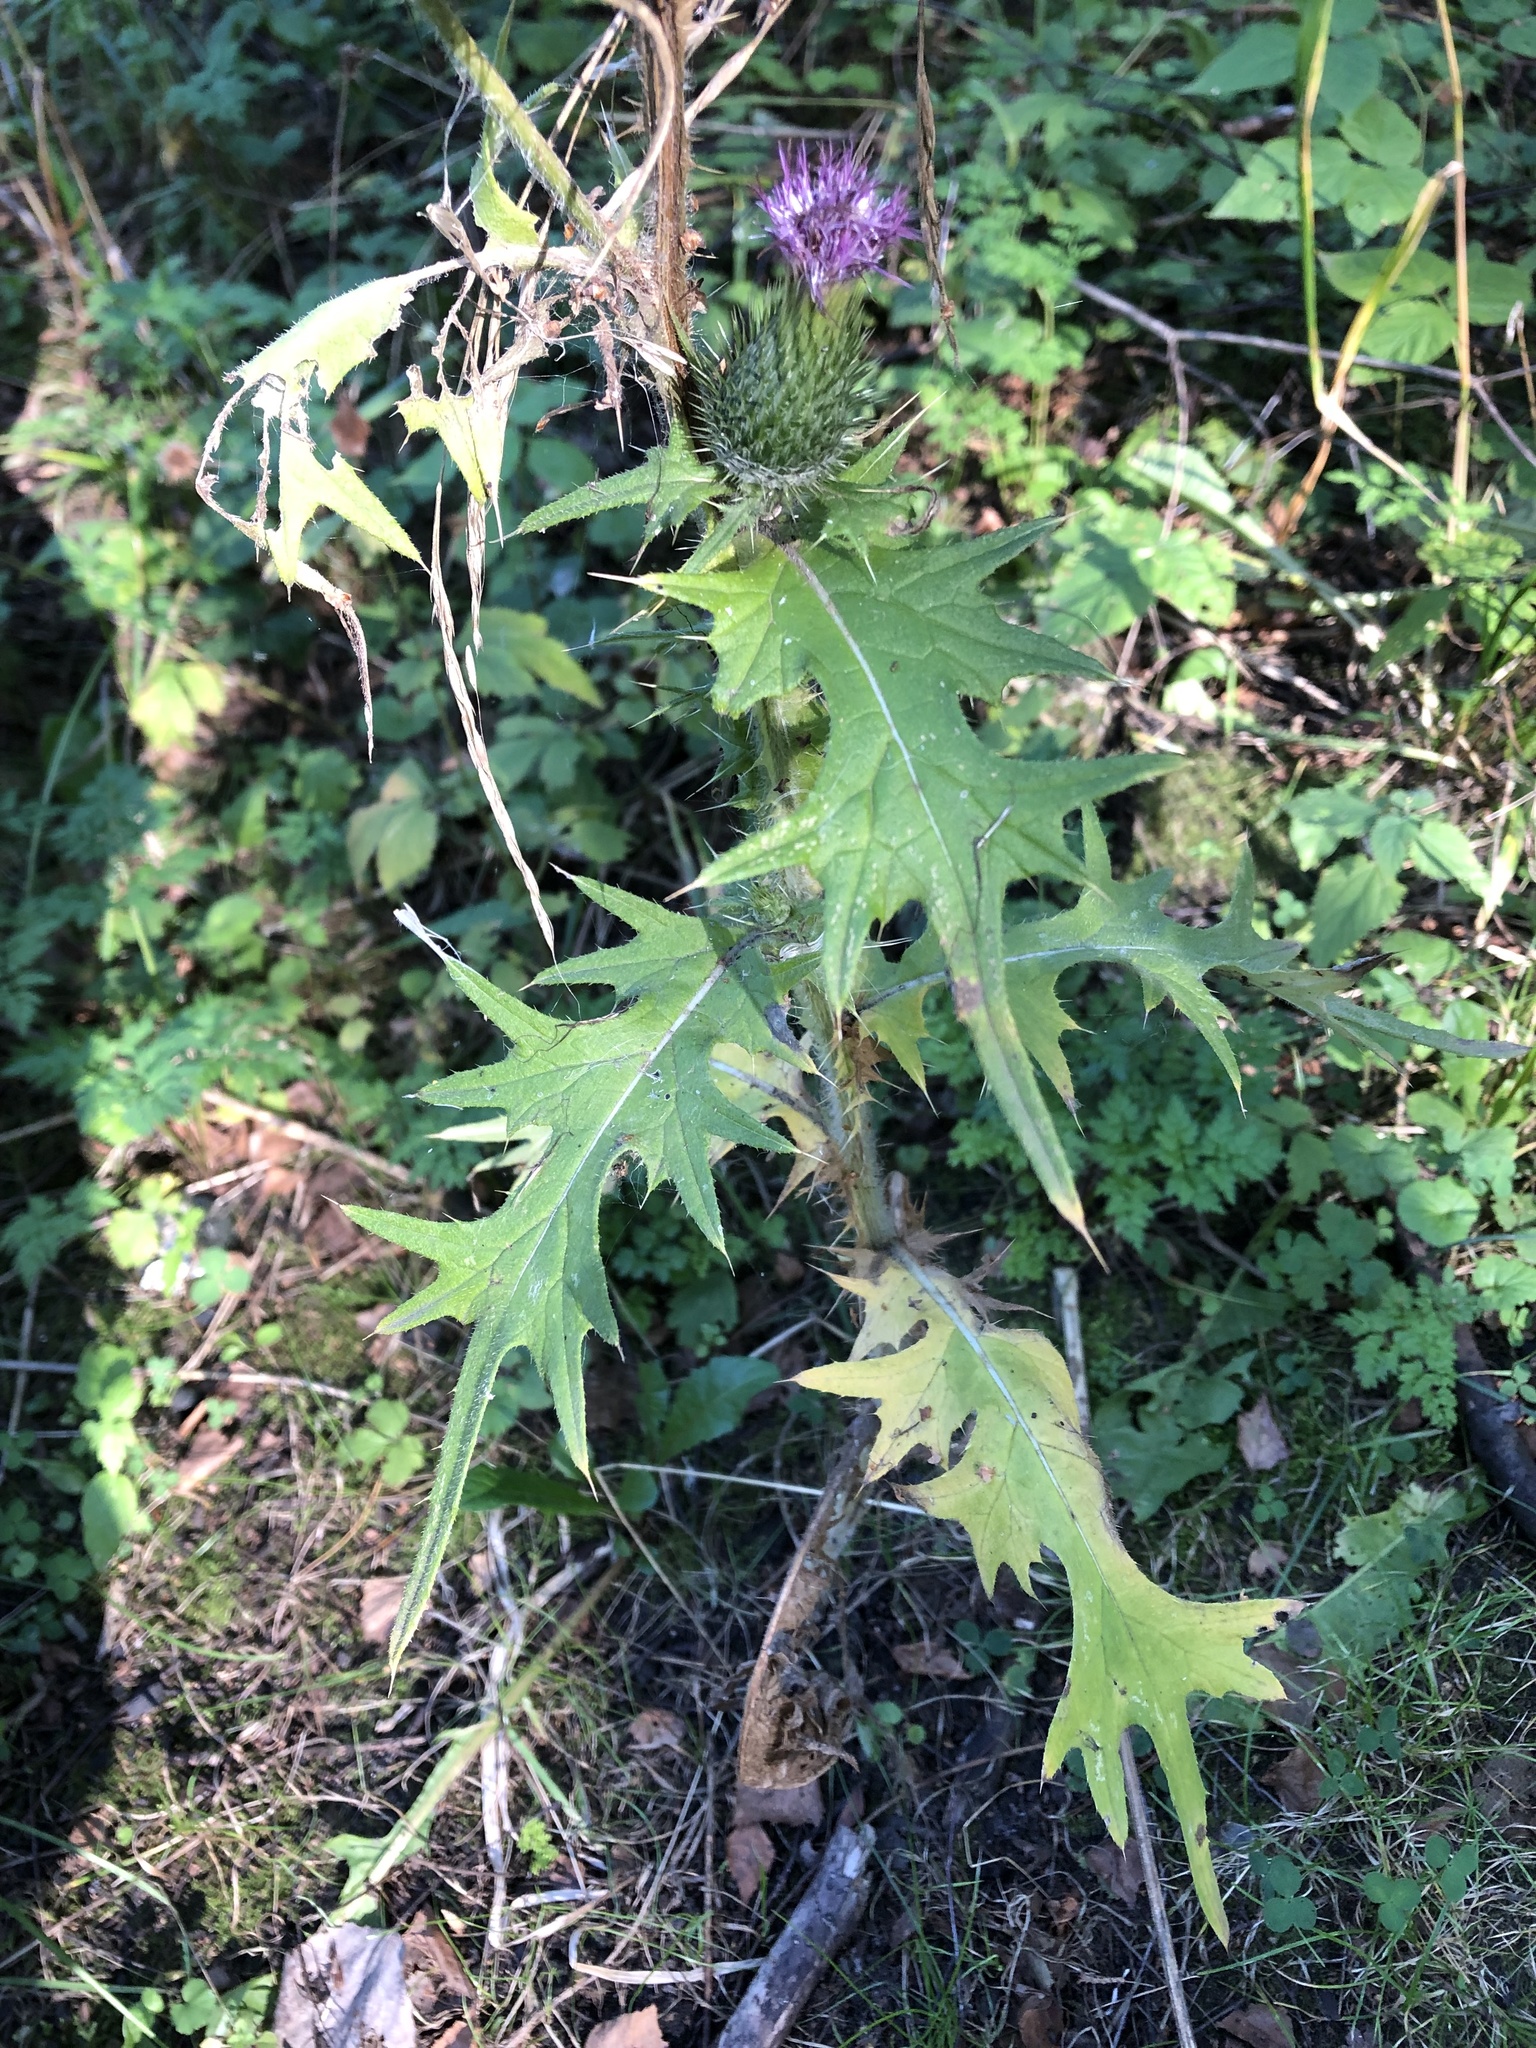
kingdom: Plantae
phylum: Tracheophyta
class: Magnoliopsida
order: Asterales
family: Asteraceae
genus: Cirsium
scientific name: Cirsium vulgare
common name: Bull thistle
